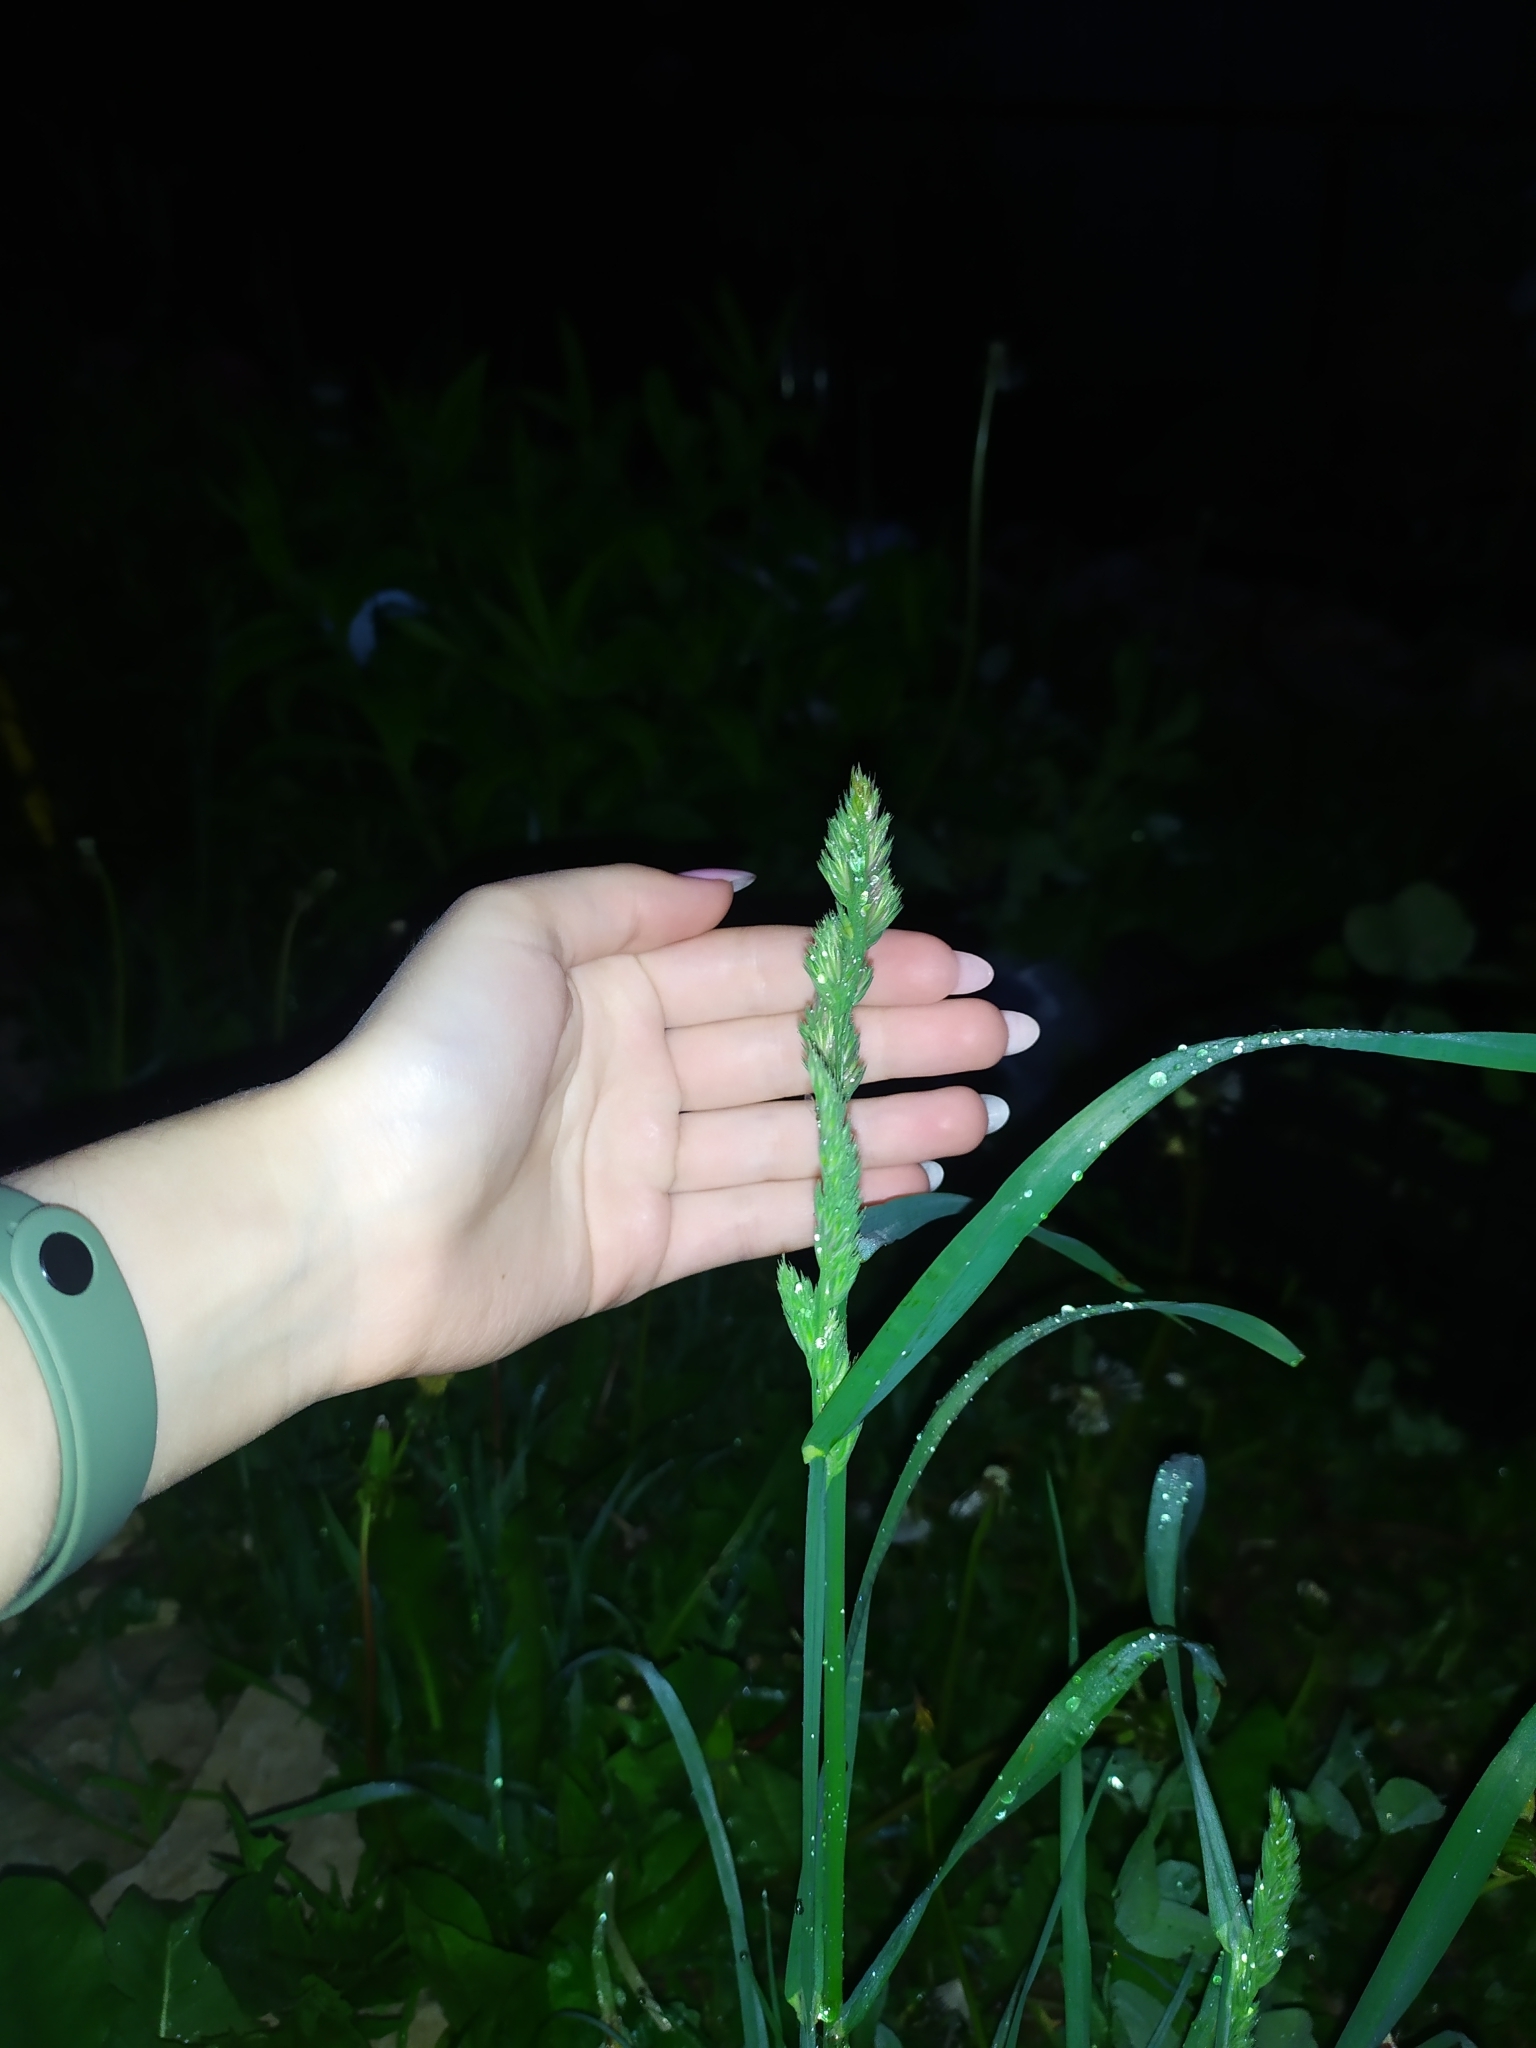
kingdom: Plantae
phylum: Tracheophyta
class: Liliopsida
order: Poales
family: Poaceae
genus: Dactylis
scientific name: Dactylis glomerata
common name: Orchardgrass
